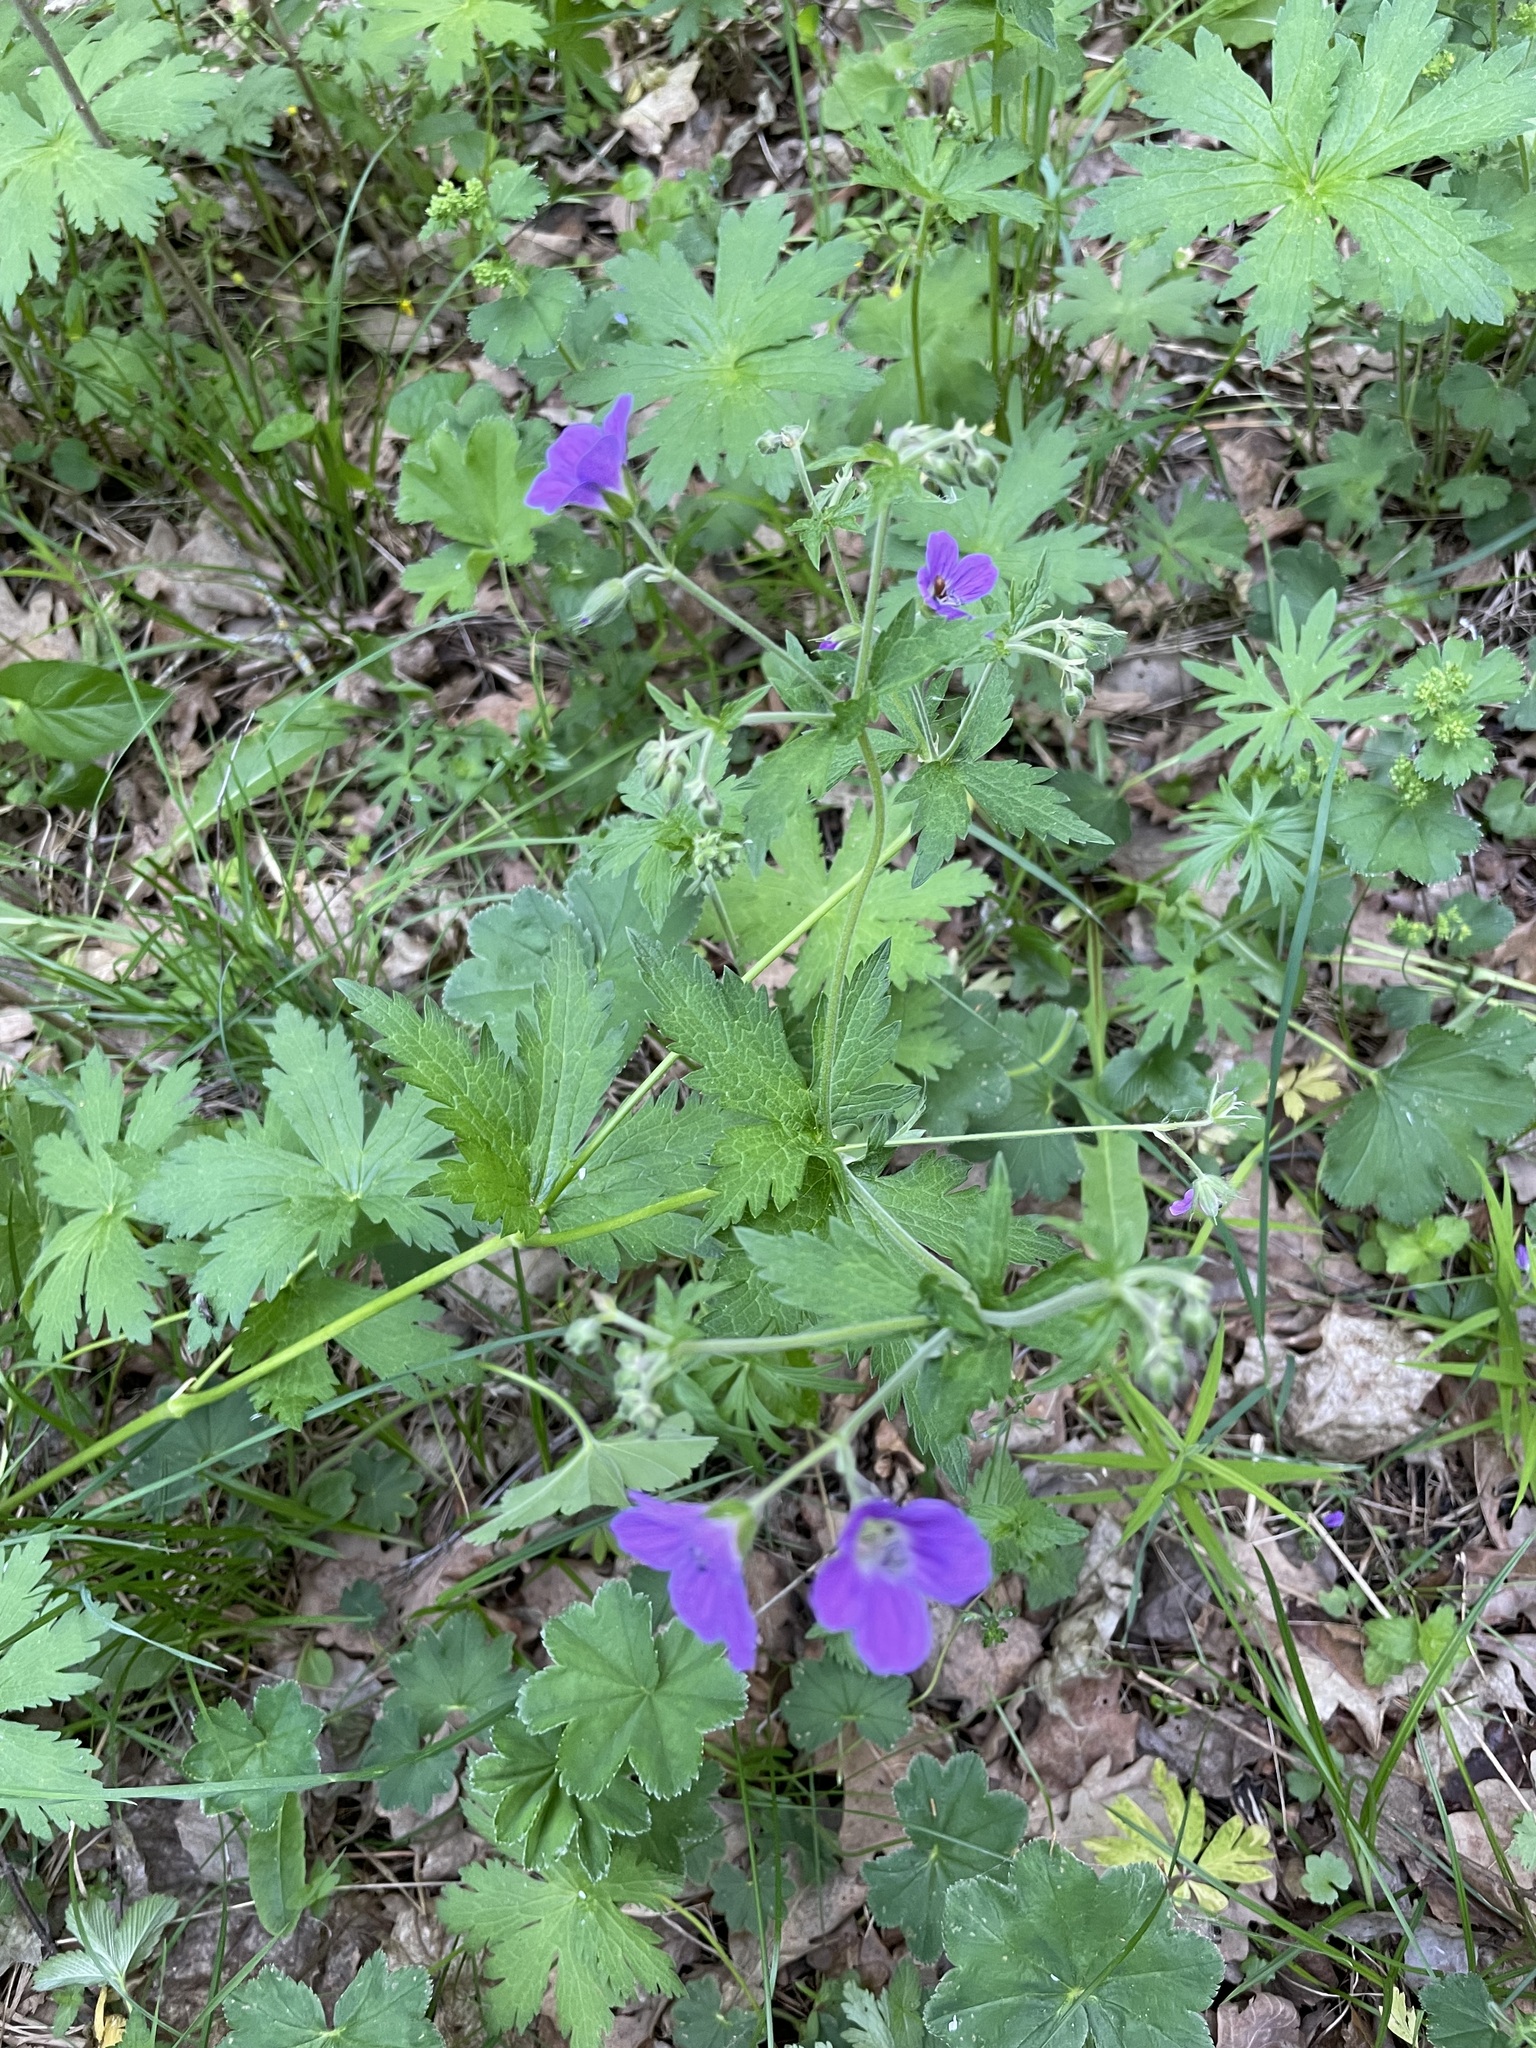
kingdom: Plantae
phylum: Tracheophyta
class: Magnoliopsida
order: Geraniales
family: Geraniaceae
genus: Geranium
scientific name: Geranium sylvaticum
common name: Wood crane's-bill
